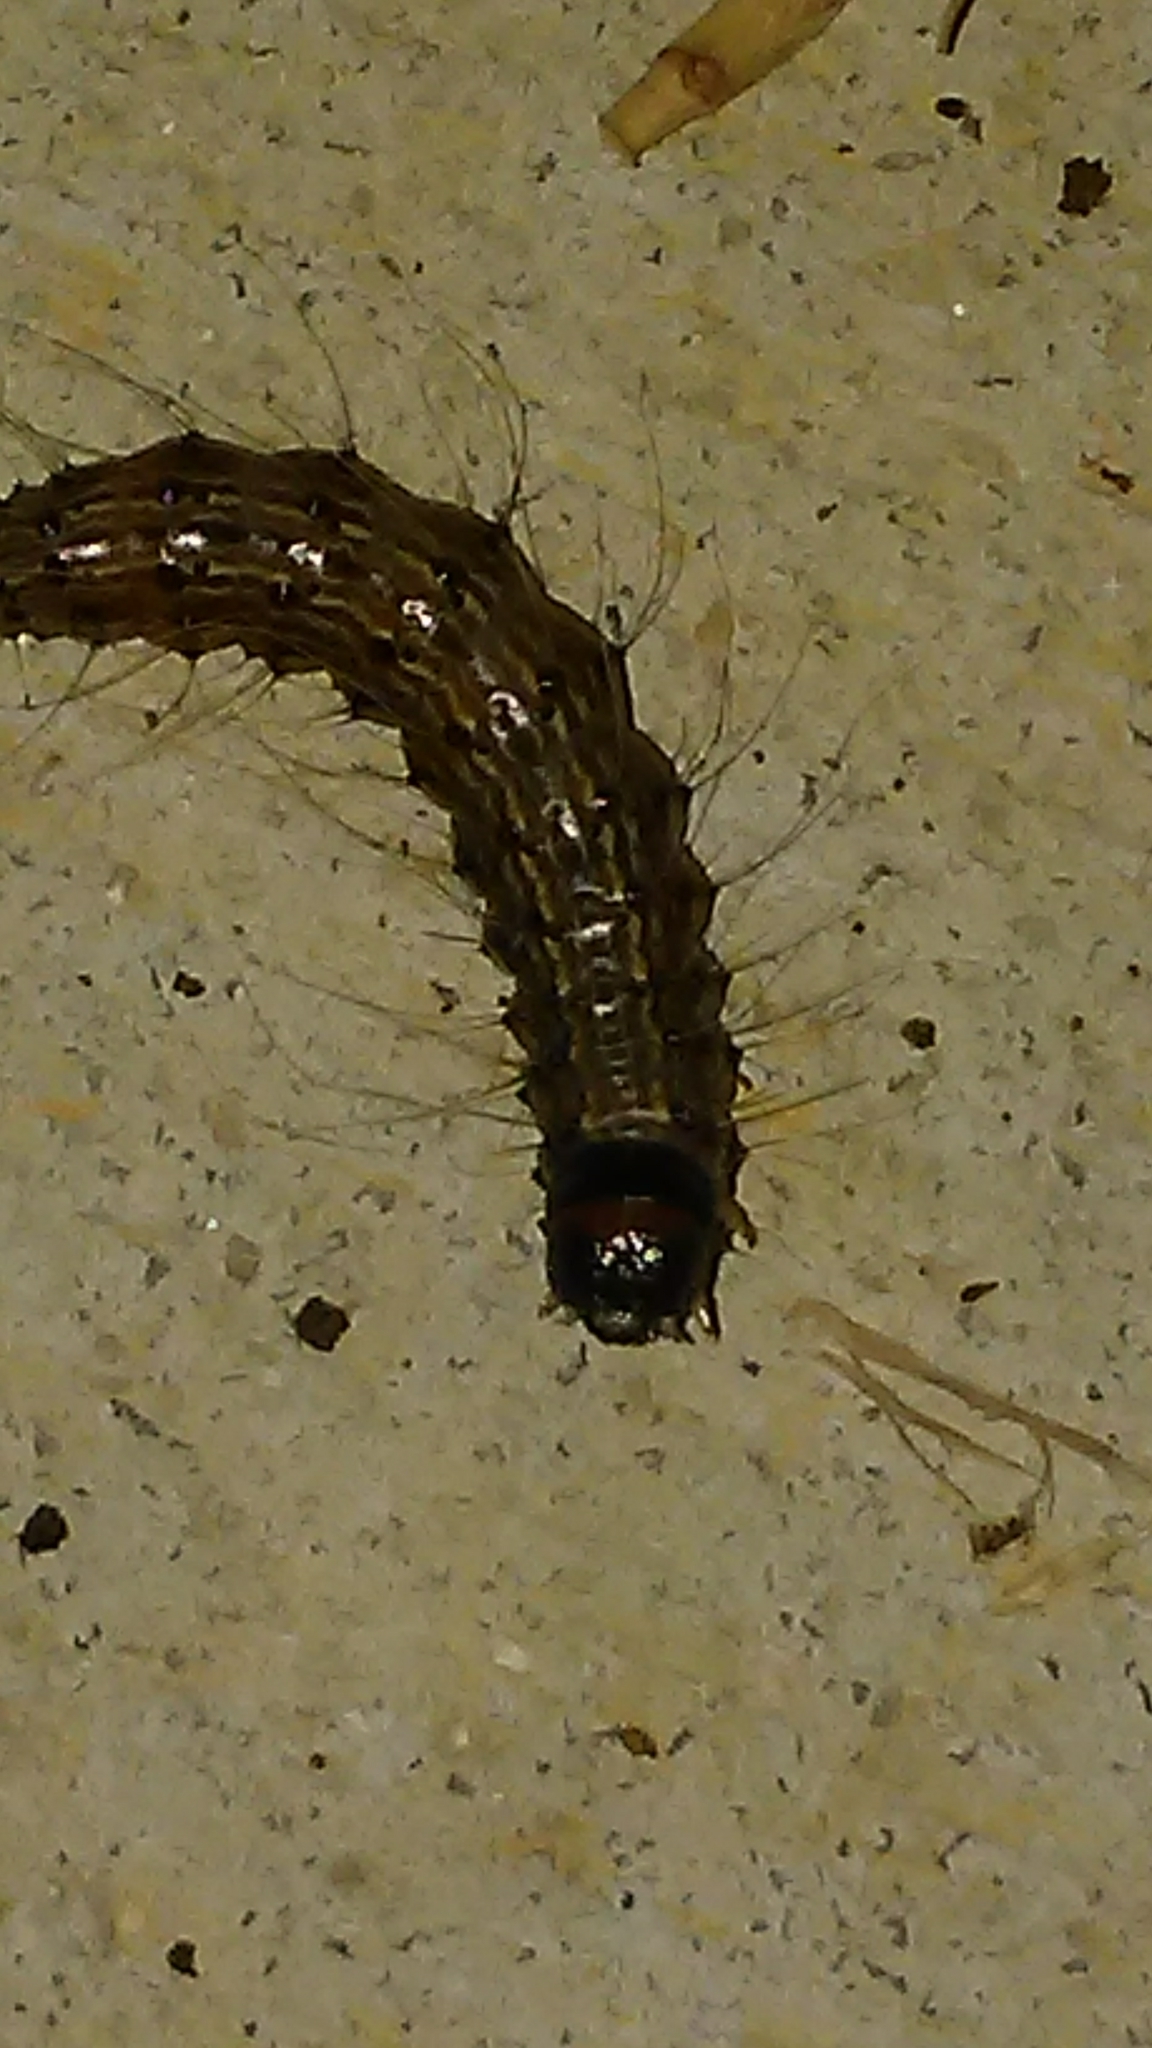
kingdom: Animalia
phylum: Arthropoda
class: Insecta
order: Lepidoptera
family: Erebidae
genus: Litoprosopus
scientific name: Litoprosopus futilis
